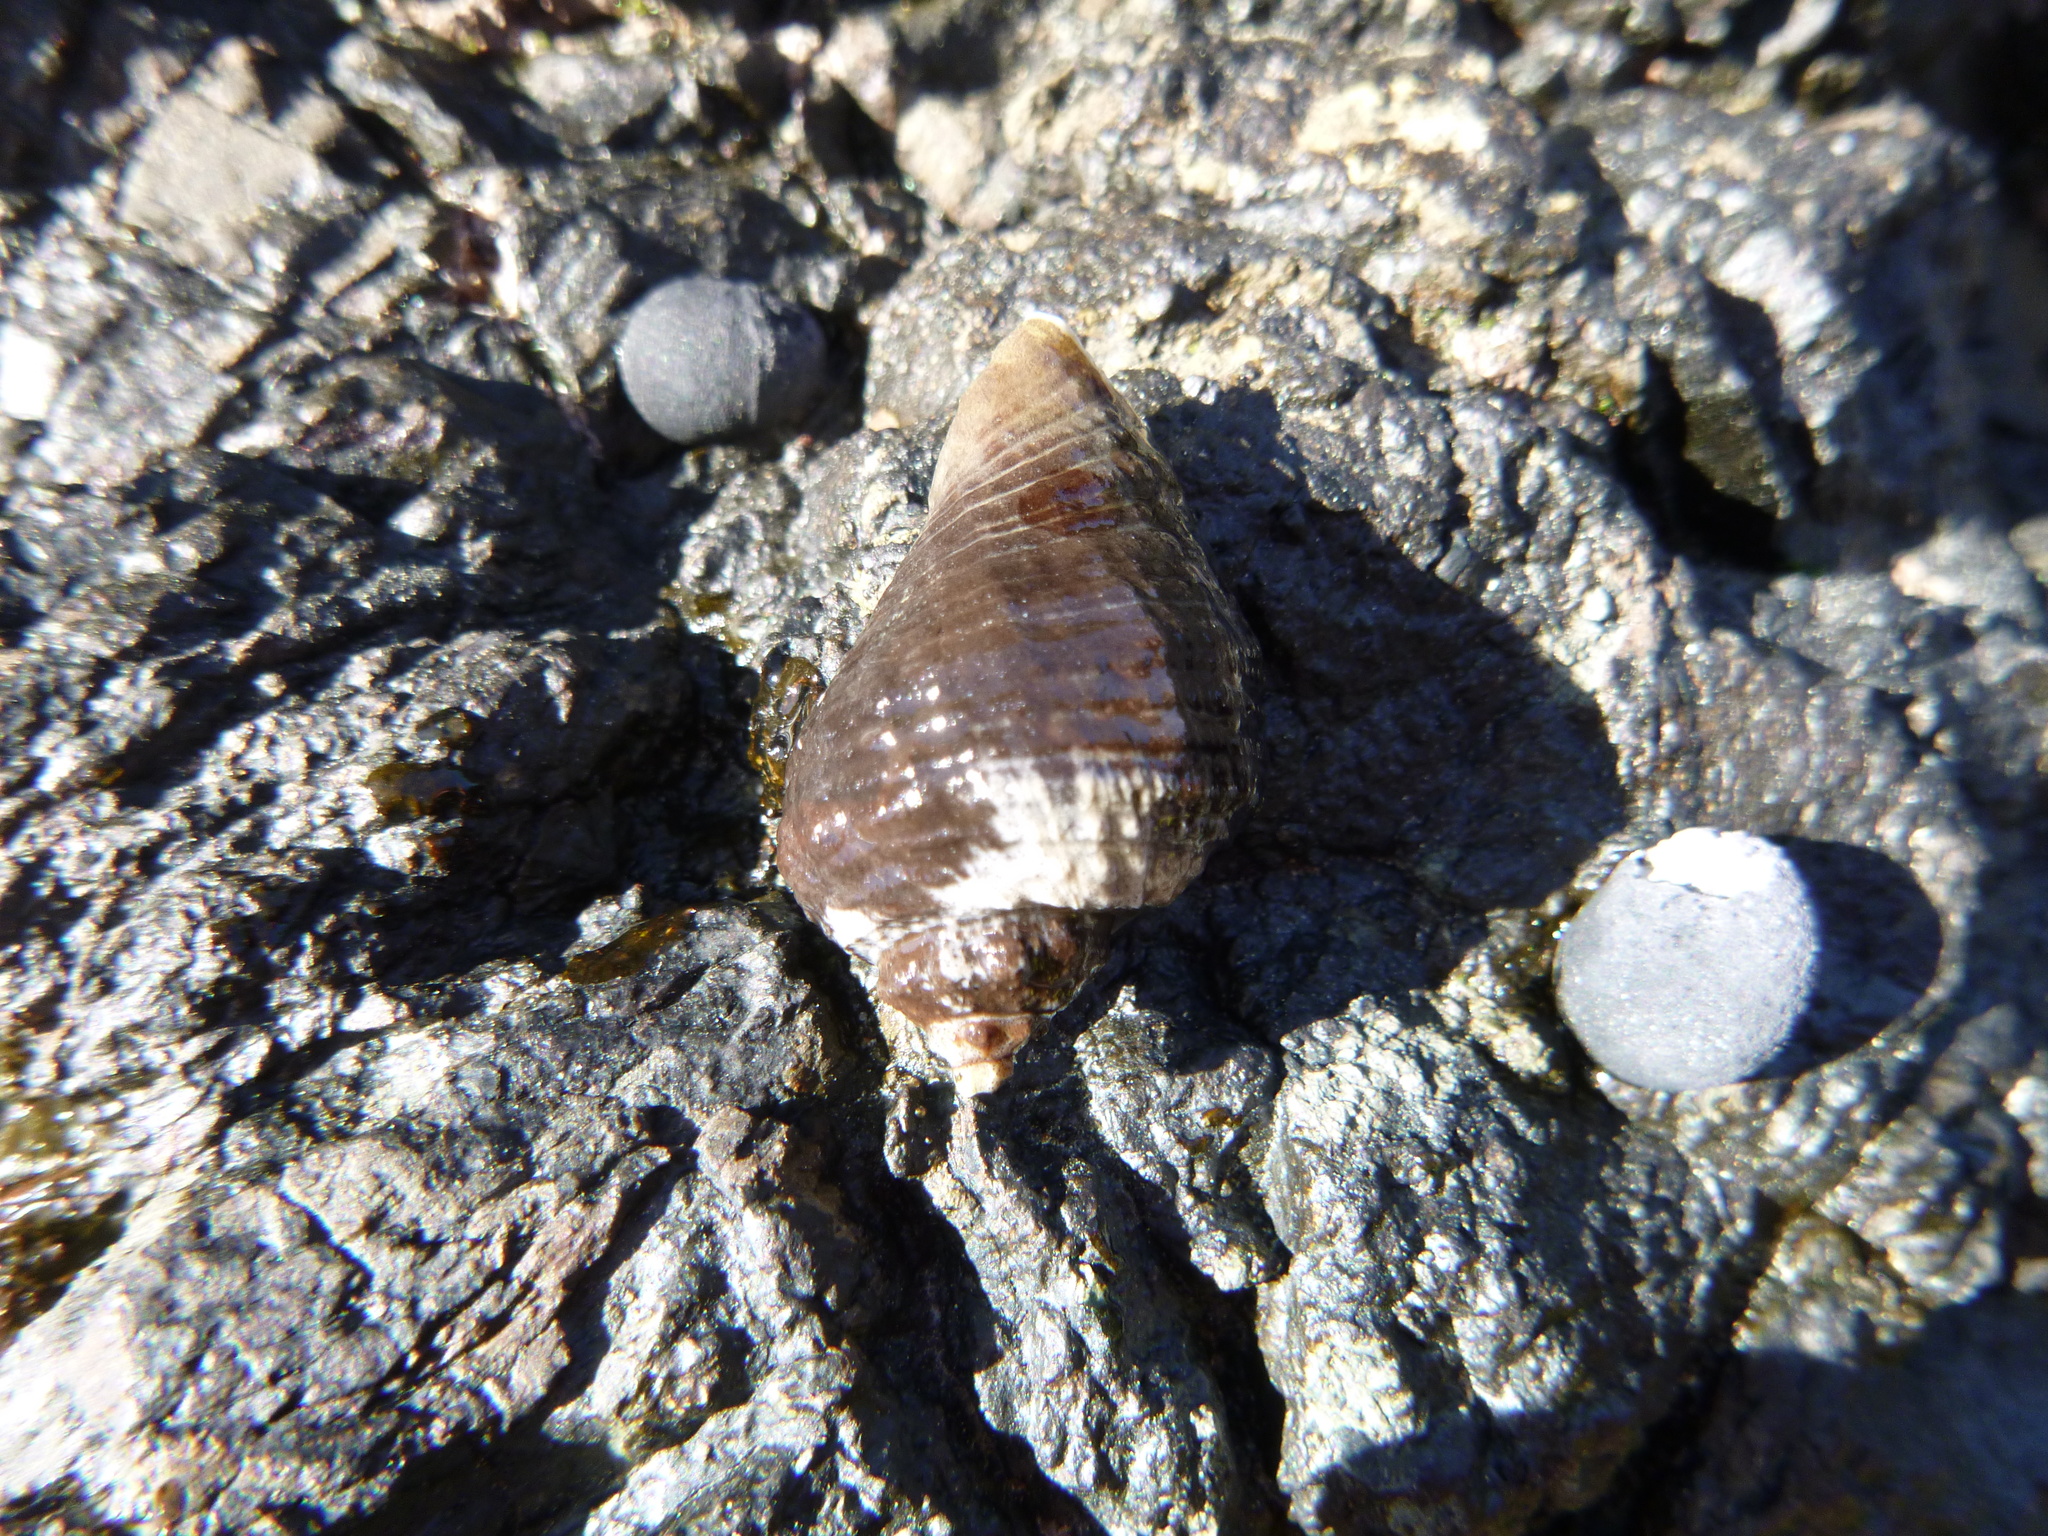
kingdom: Animalia
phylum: Mollusca
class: Gastropoda
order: Neogastropoda
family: Muricidae
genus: Haustrum
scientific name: Haustrum haustorium
